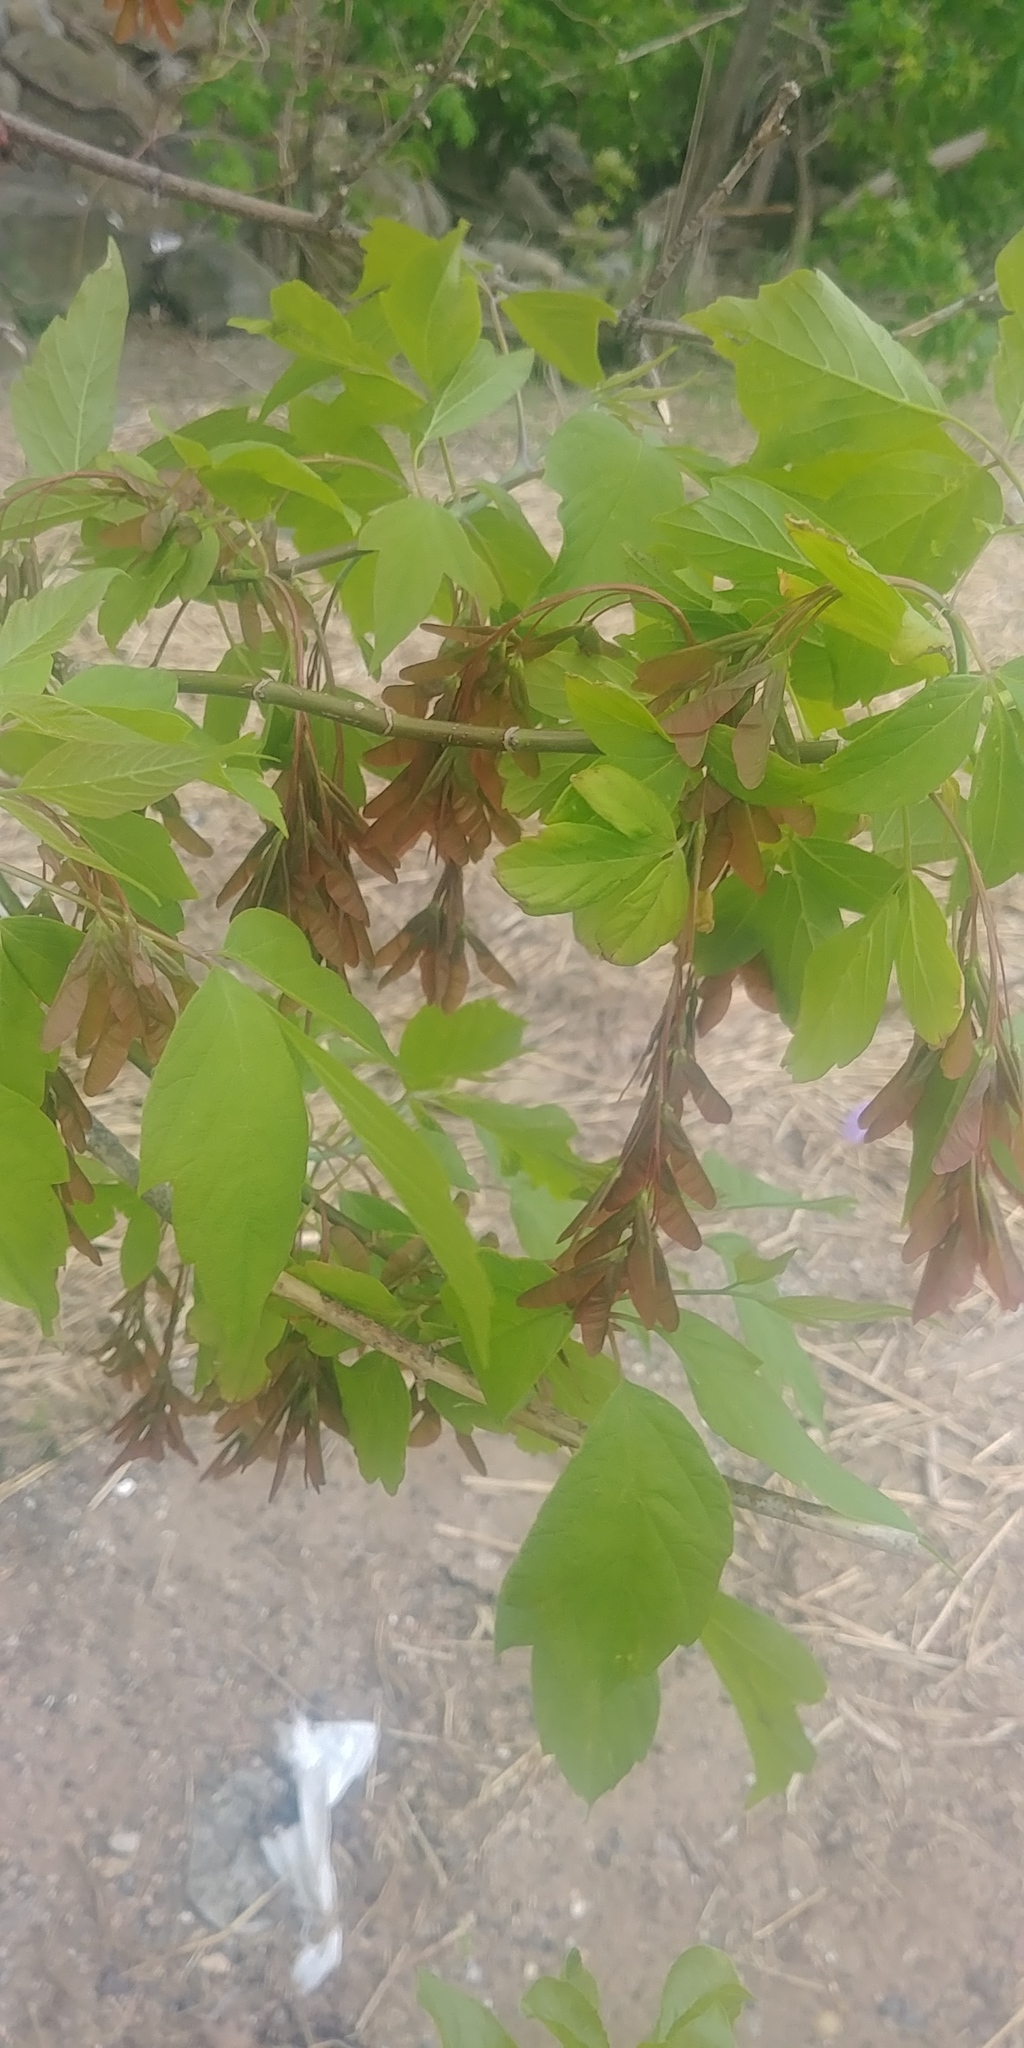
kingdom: Plantae
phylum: Tracheophyta
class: Magnoliopsida
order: Sapindales
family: Sapindaceae
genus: Acer
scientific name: Acer negundo
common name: Ashleaf maple
